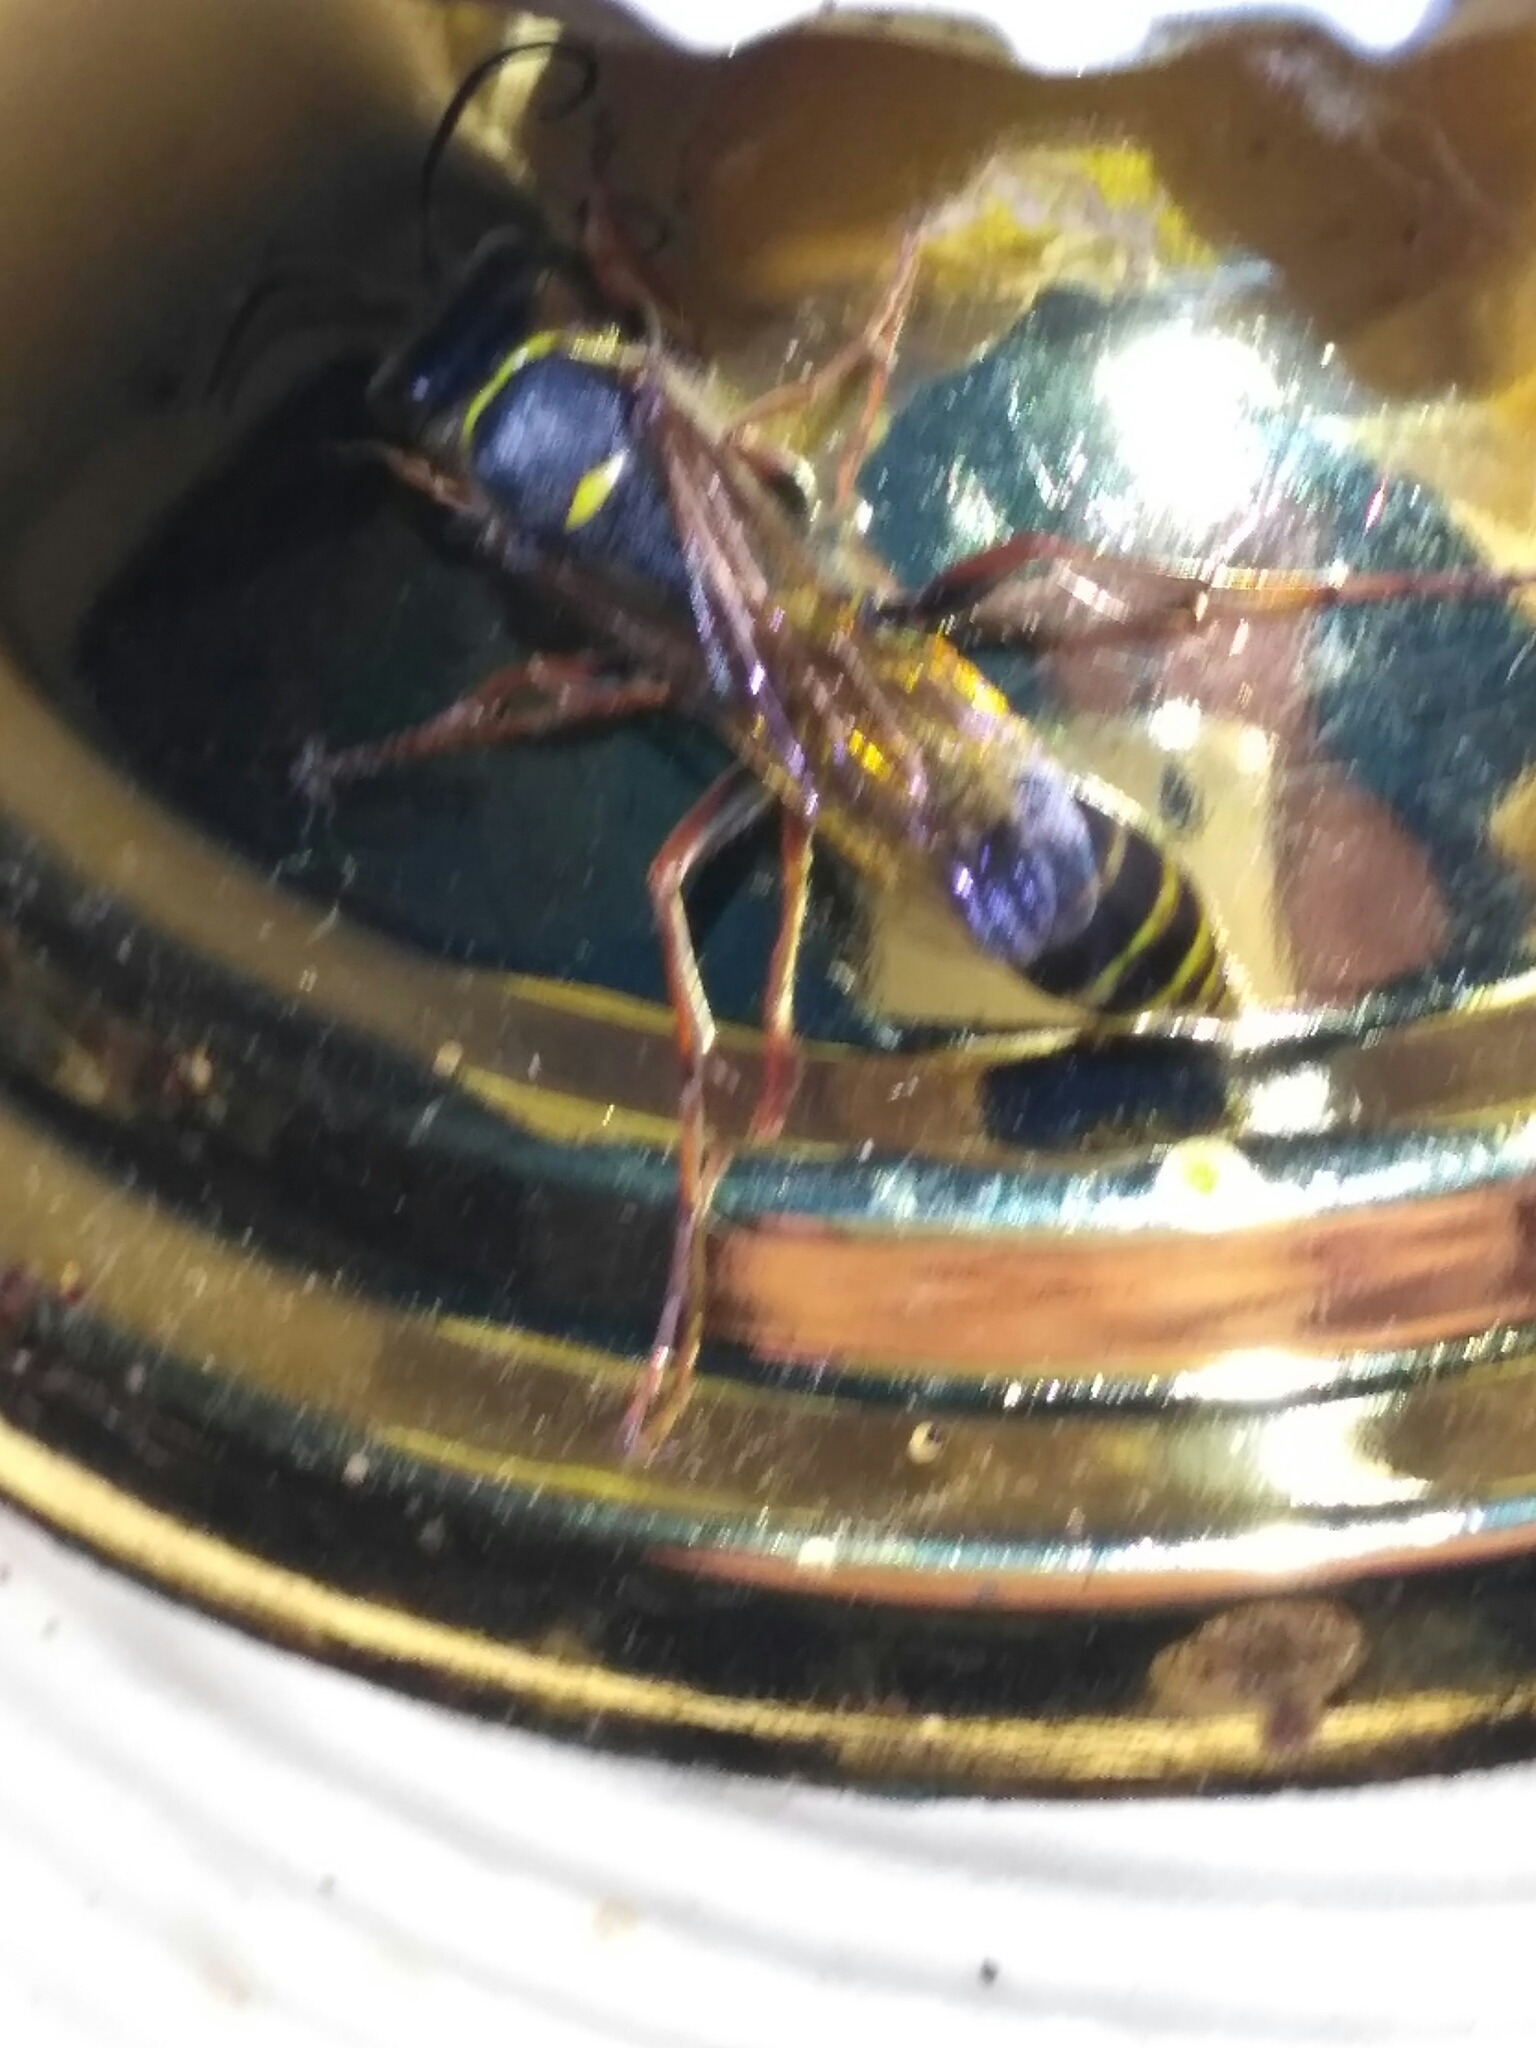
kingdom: Animalia
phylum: Arthropoda
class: Insecta
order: Hymenoptera
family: Sphecidae
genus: Sceliphron
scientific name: Sceliphron curvatum
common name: Pèlopèe
